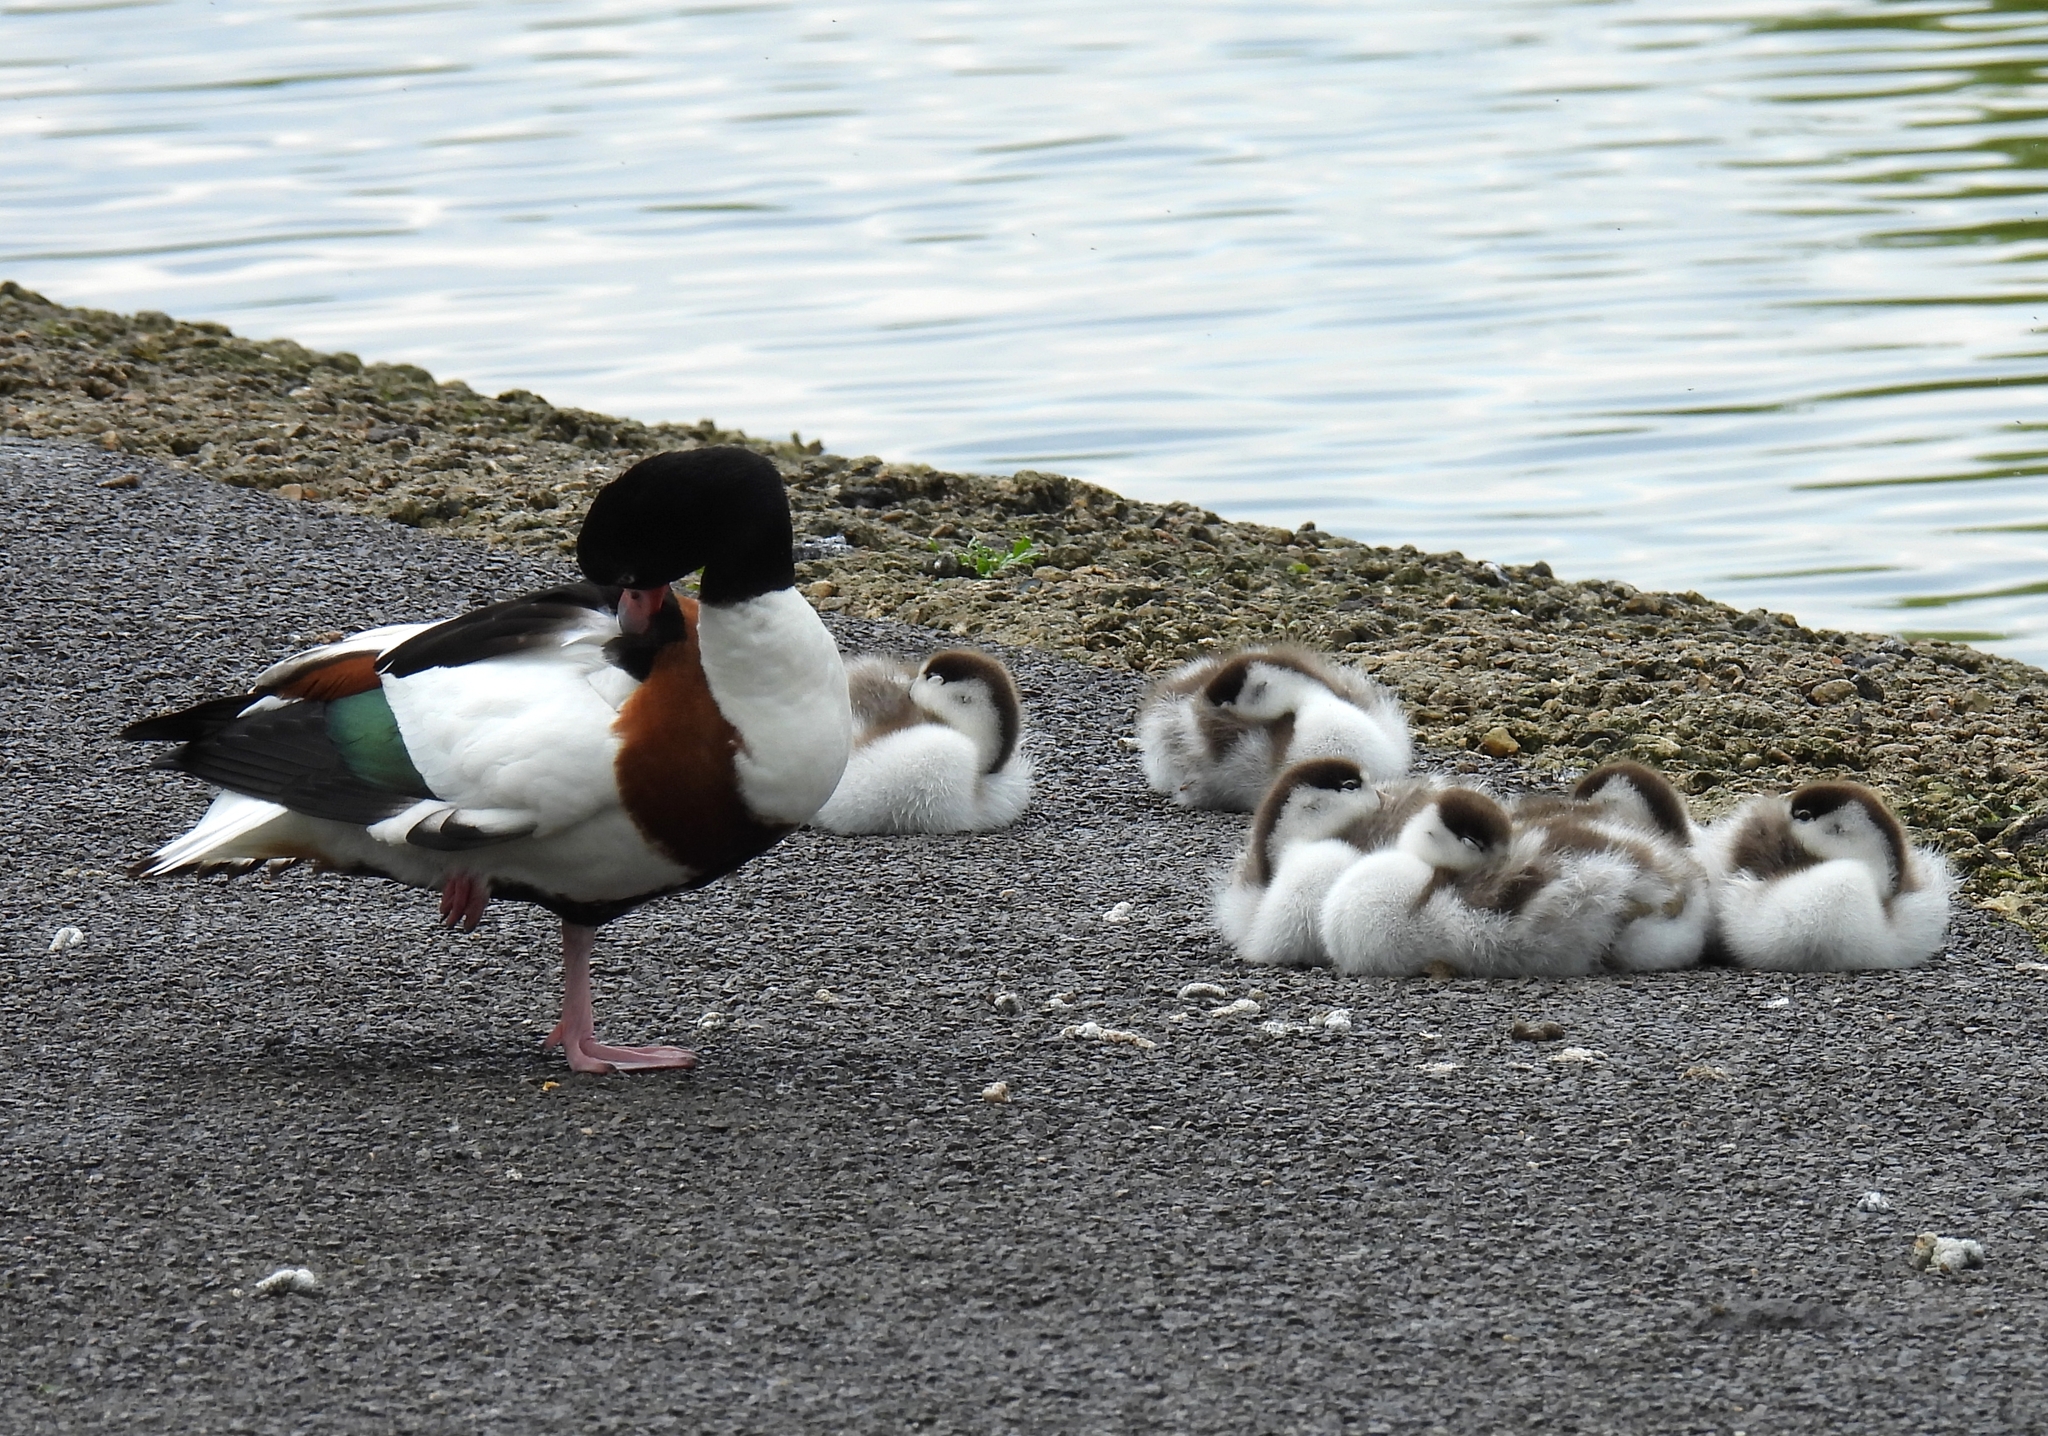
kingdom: Animalia
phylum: Chordata
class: Aves
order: Anseriformes
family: Anatidae
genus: Tadorna
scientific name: Tadorna tadorna
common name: Common shelduck
